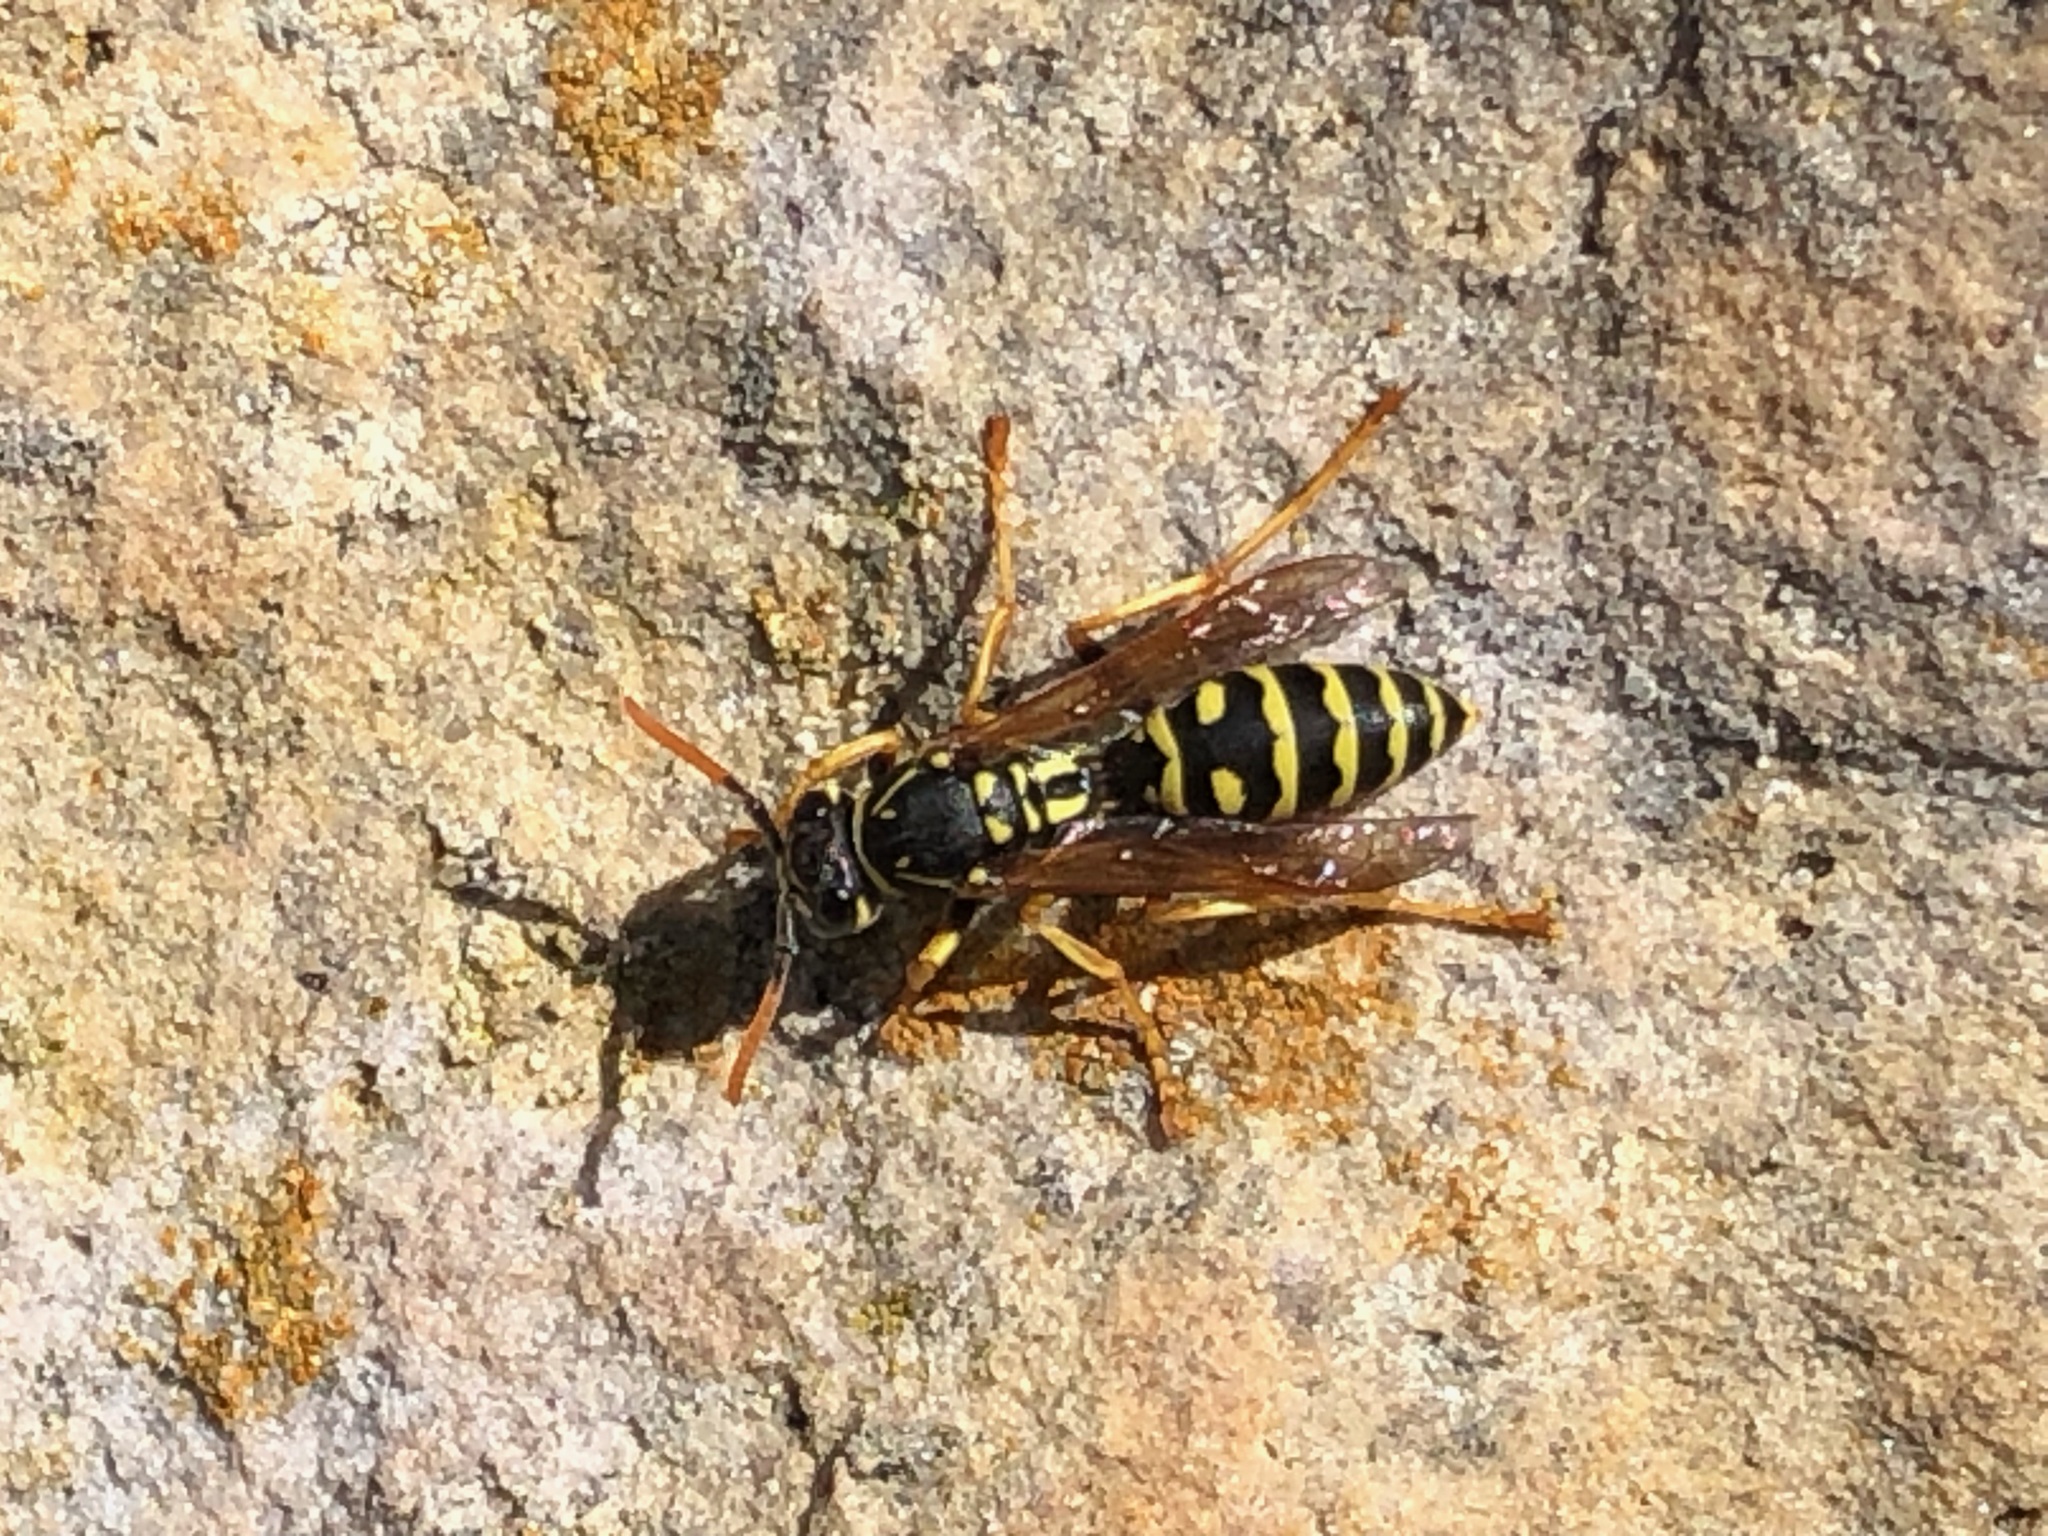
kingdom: Animalia
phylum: Arthropoda
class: Insecta
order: Hymenoptera
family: Eumenidae
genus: Polistes
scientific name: Polistes dominula
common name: Paper wasp
